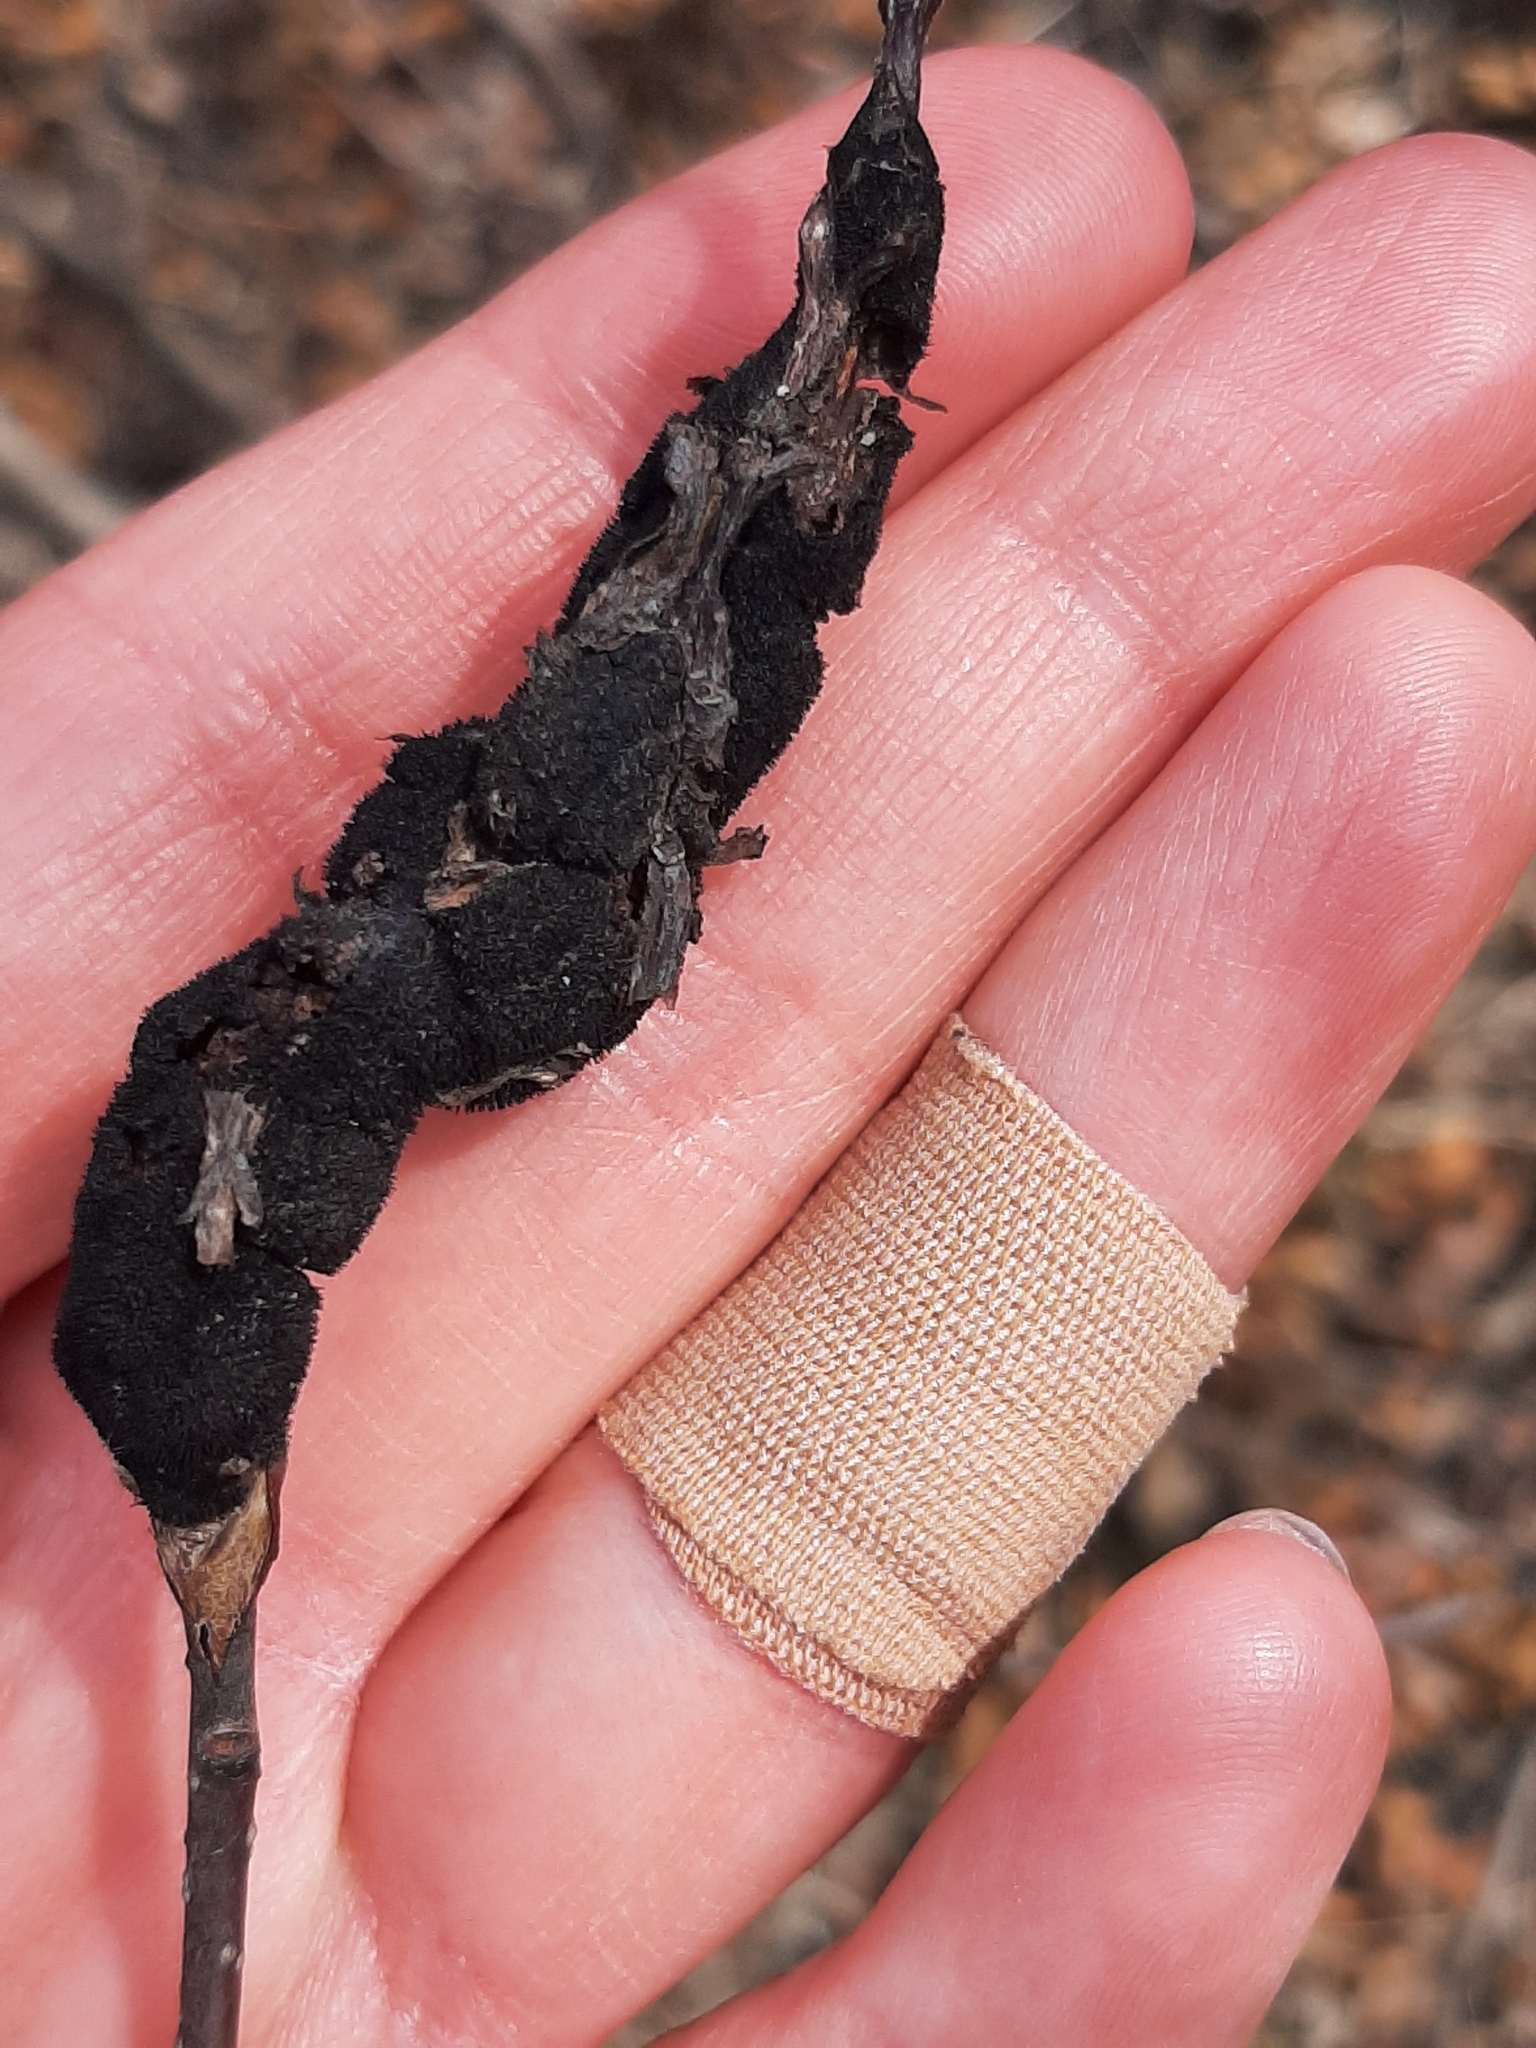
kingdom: Fungi
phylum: Ascomycota
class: Dothideomycetes
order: Venturiales
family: Venturiaceae
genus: Apiosporina
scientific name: Apiosporina morbosa
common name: Black knot
